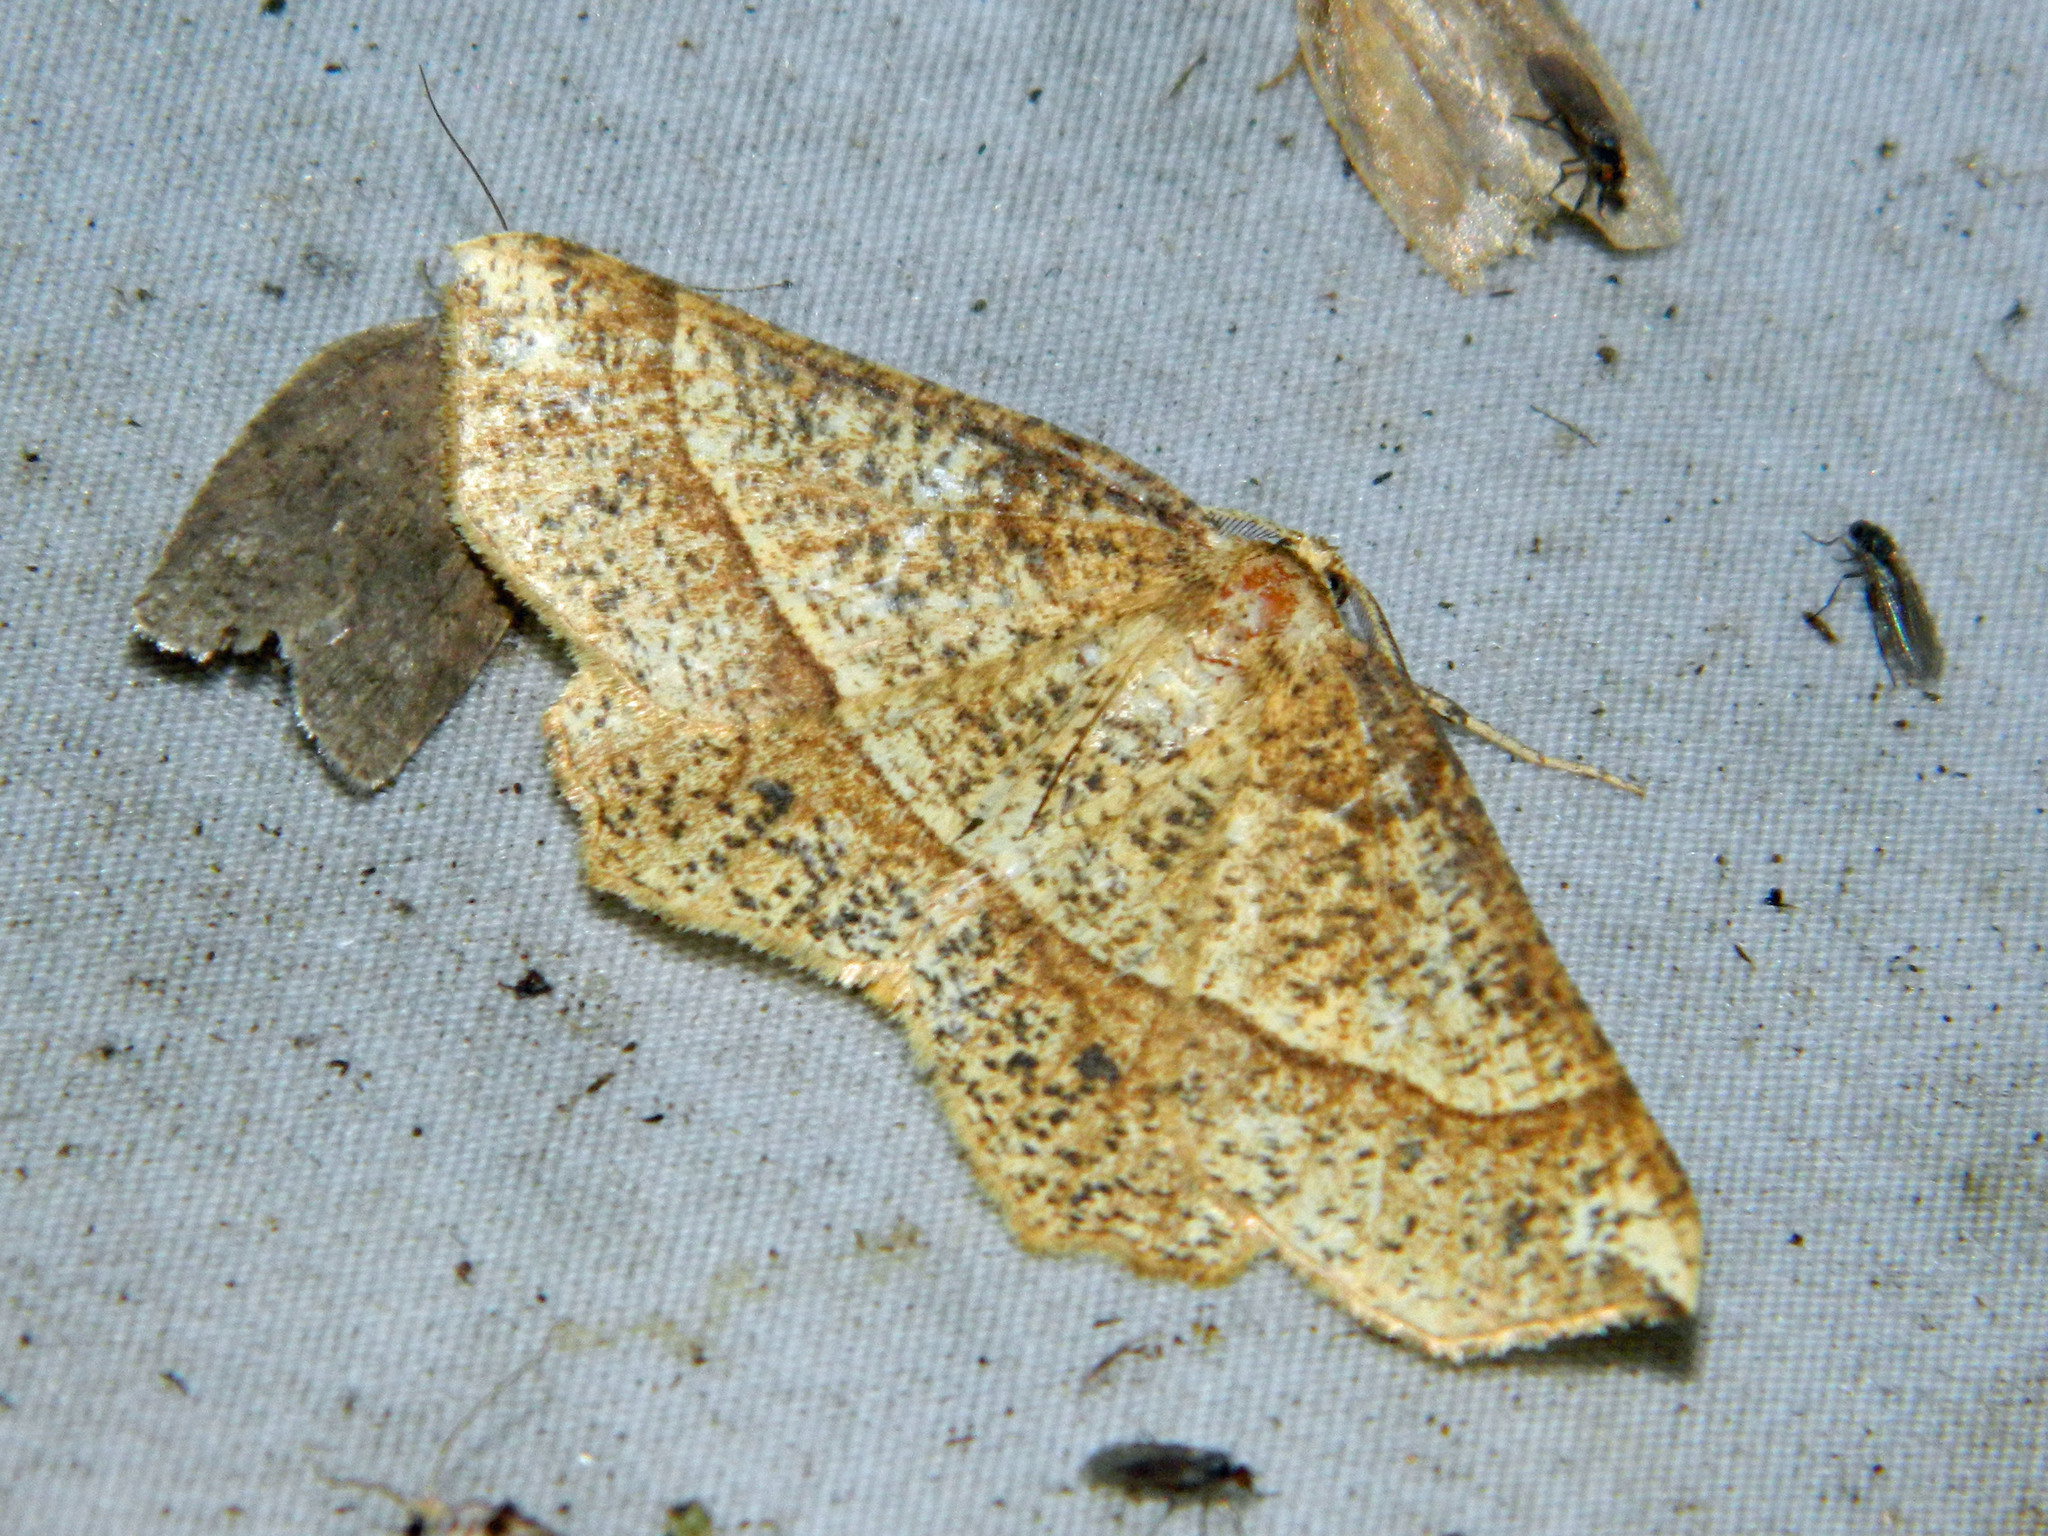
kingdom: Animalia
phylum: Arthropoda
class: Insecta
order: Lepidoptera
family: Geometridae
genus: Euchlaena
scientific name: Euchlaena tigrinaria
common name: Mottled euchlaena moth
